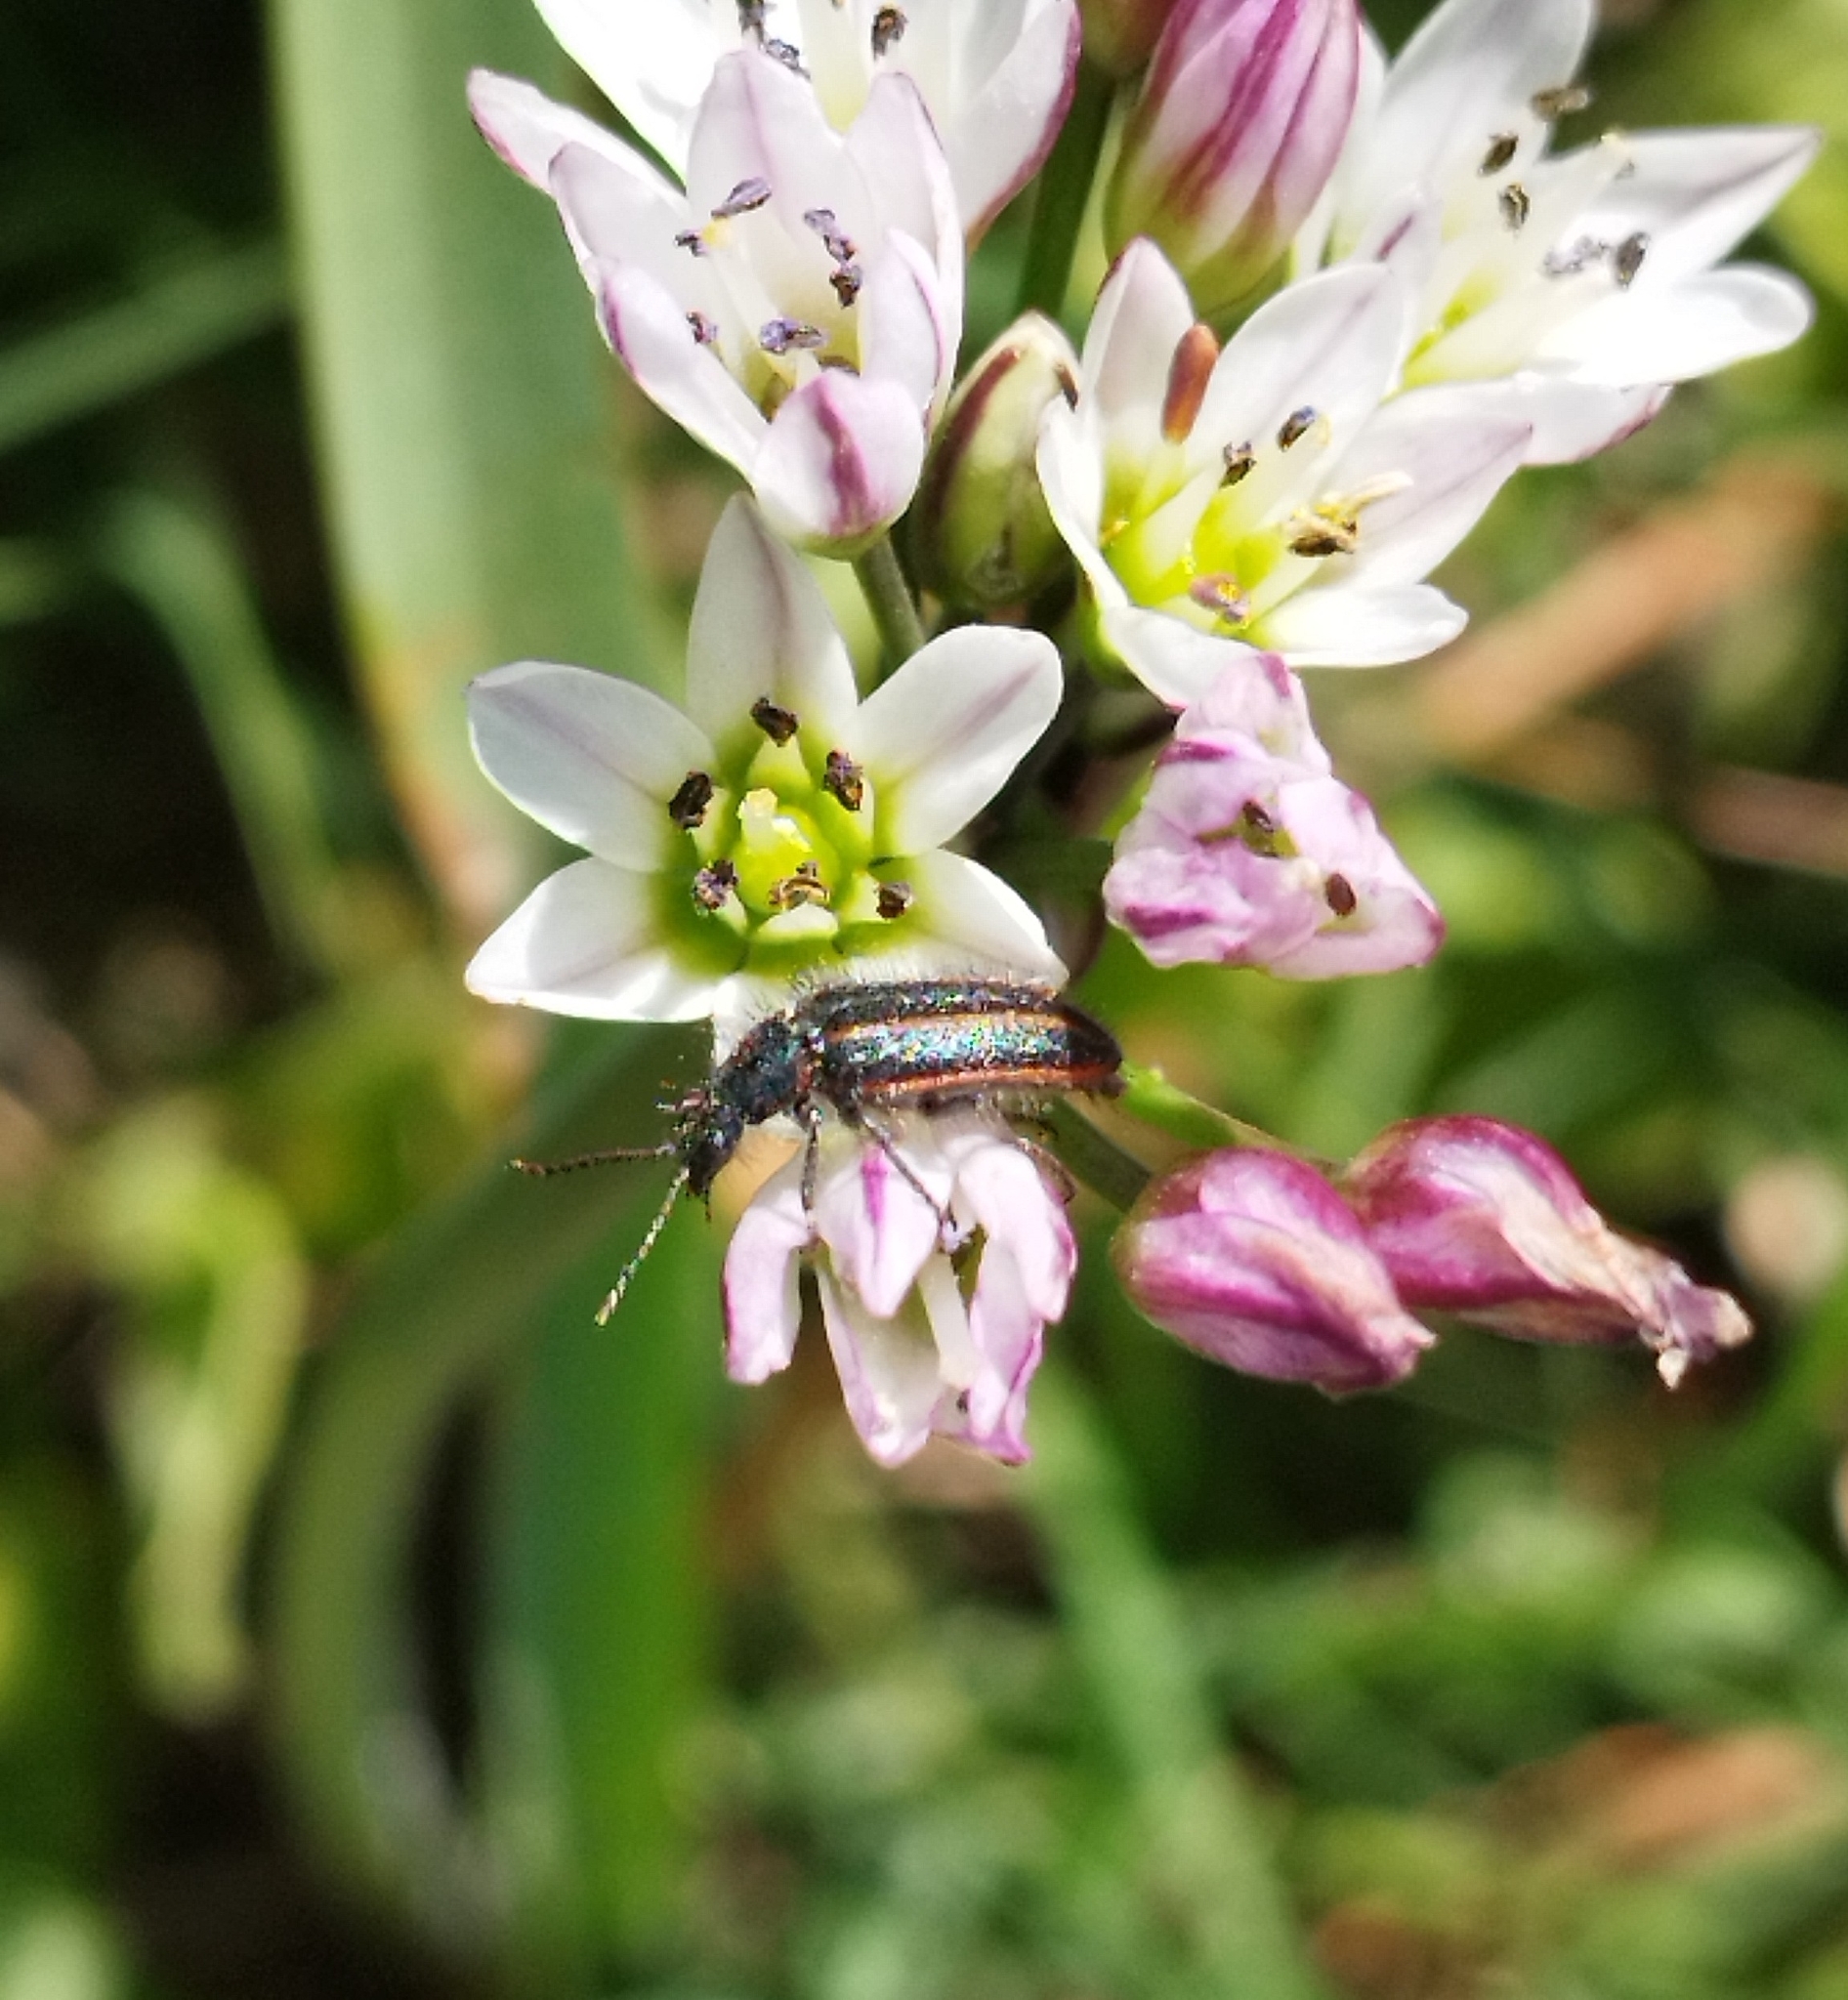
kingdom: Animalia
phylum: Arthropoda
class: Insecta
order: Coleoptera
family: Melyridae
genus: Astylus
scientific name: Astylus
